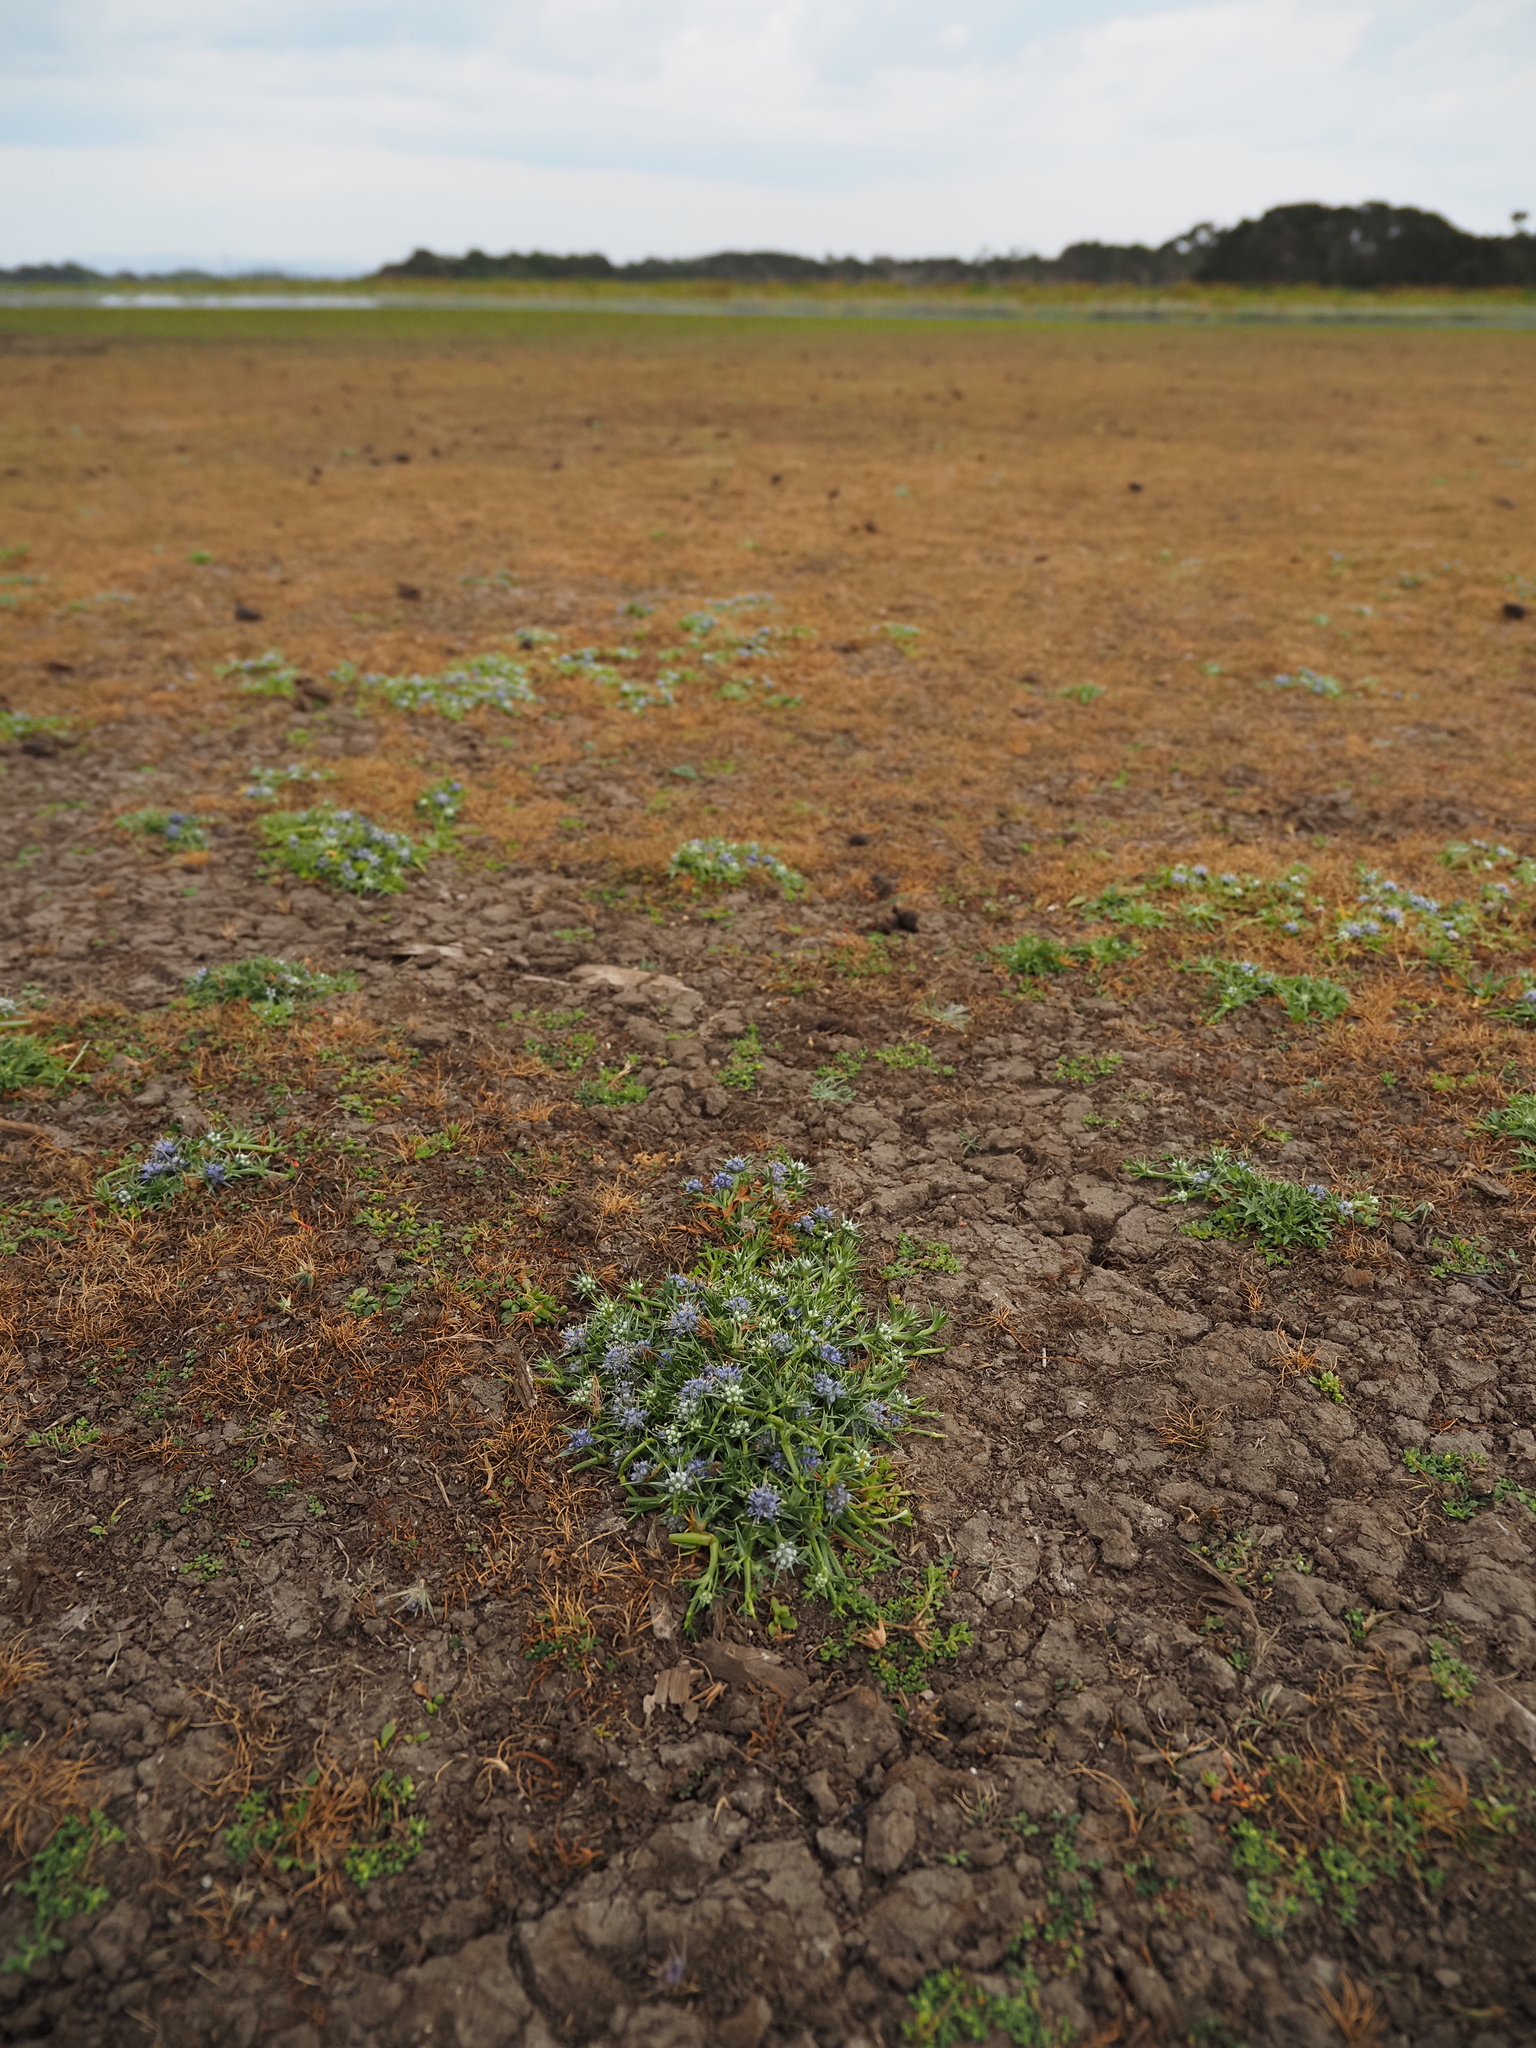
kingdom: Plantae
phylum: Tracheophyta
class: Magnoliopsida
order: Apiales
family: Apiaceae
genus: Eryngium
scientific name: Eryngium vesiculosum
